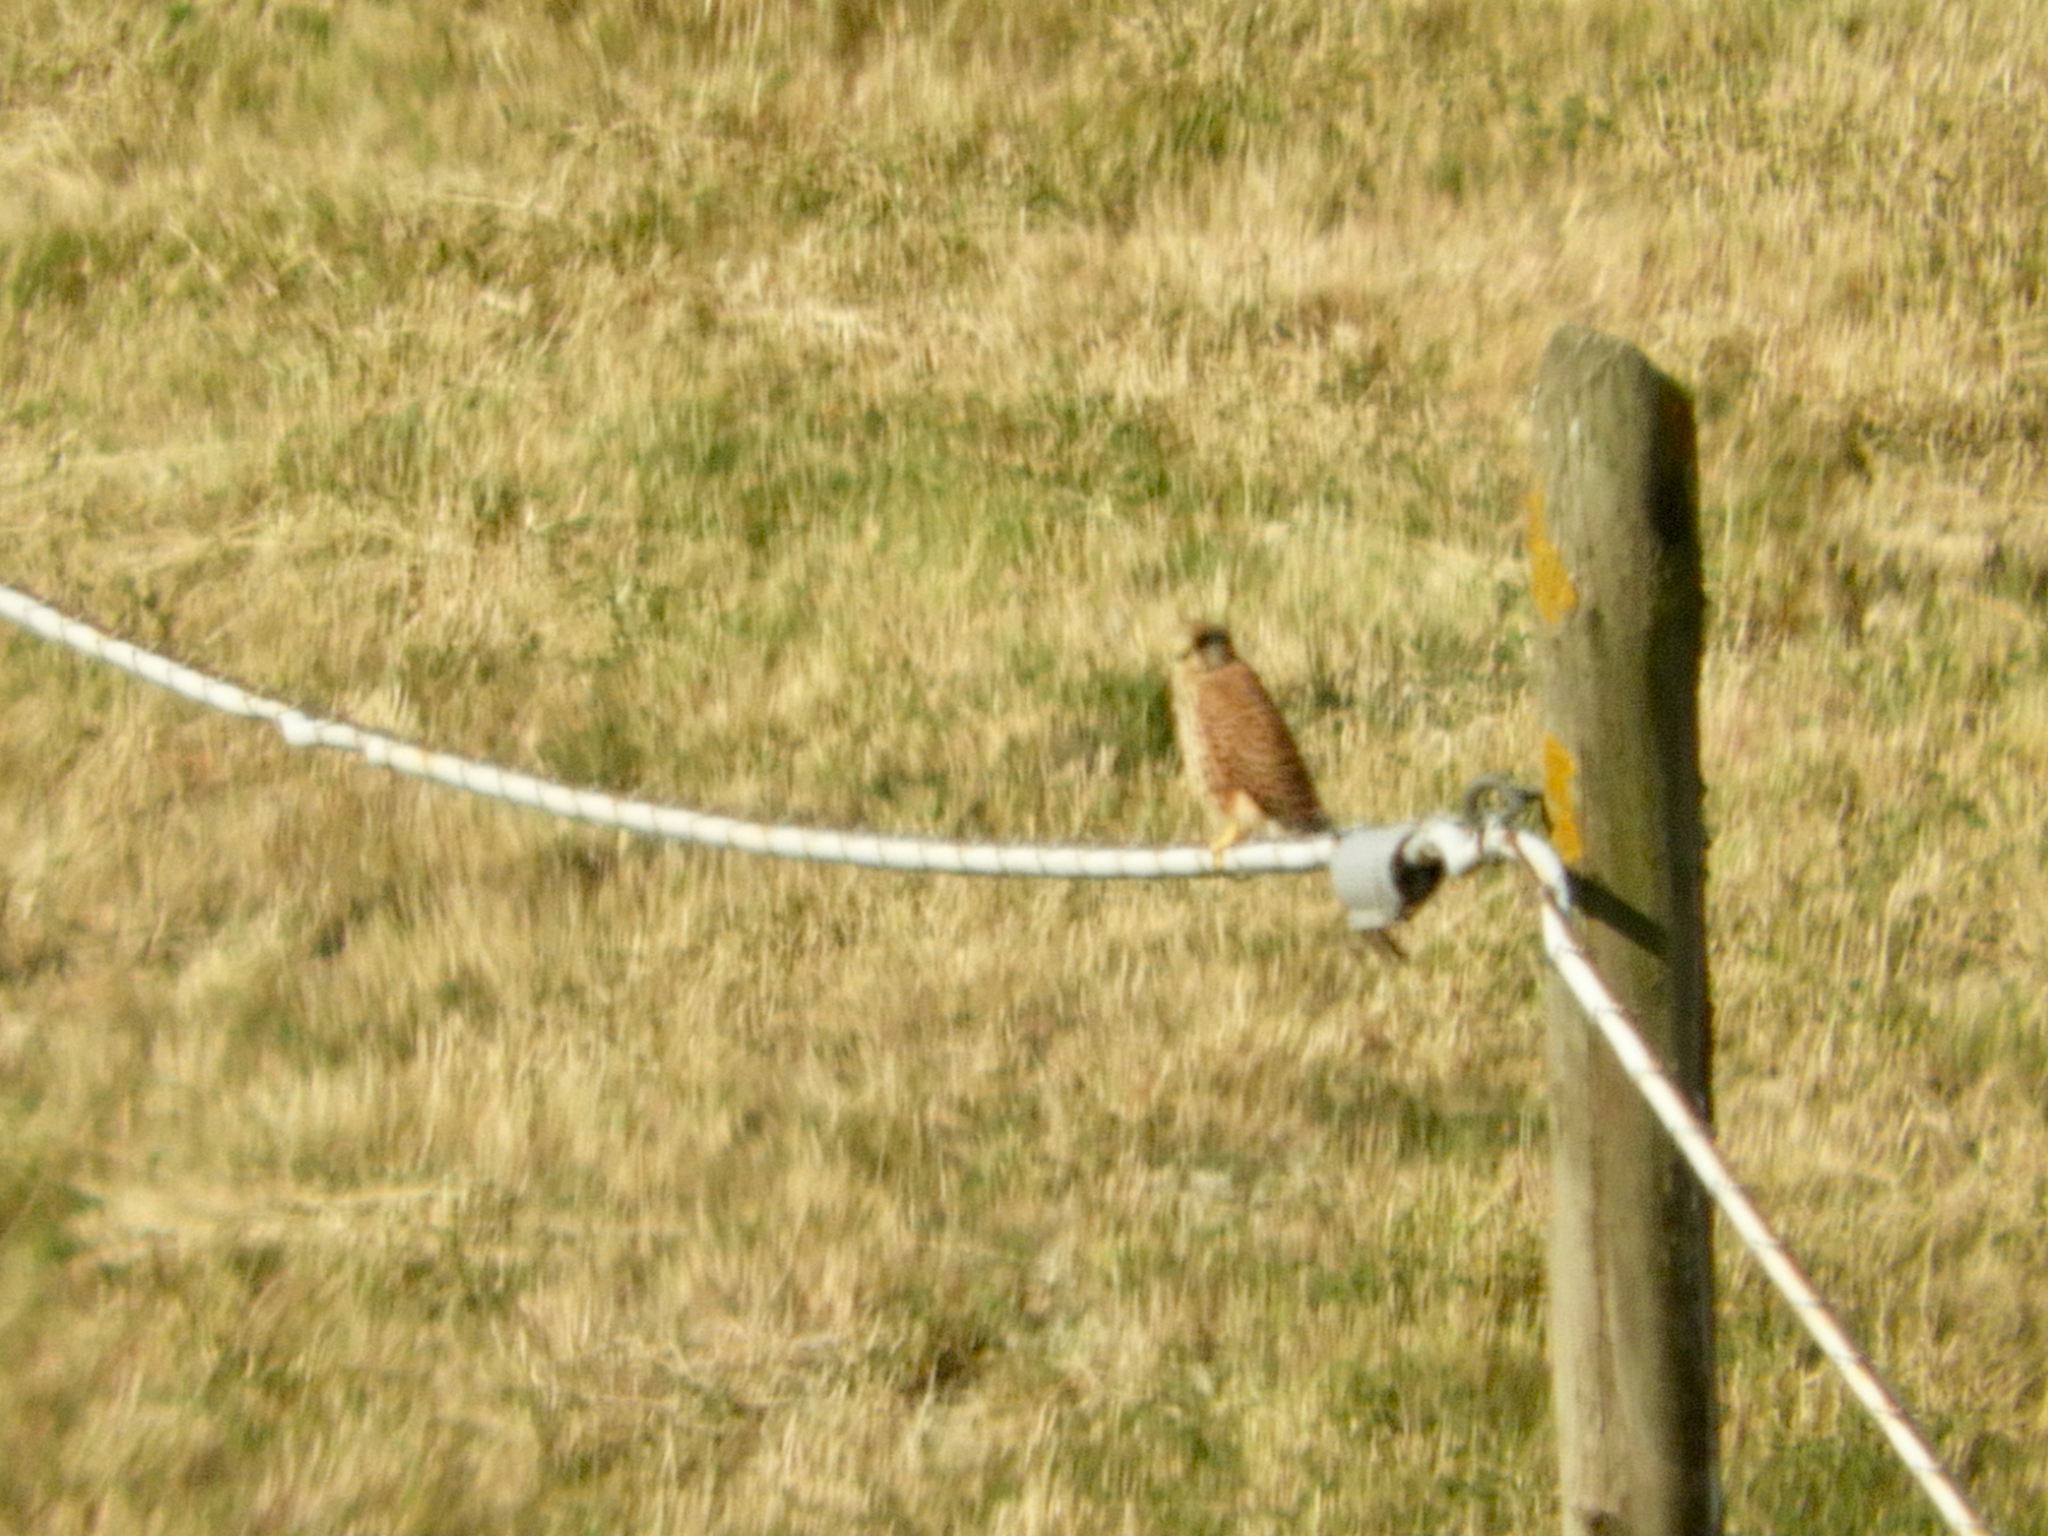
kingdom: Animalia
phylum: Chordata
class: Aves
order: Falconiformes
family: Falconidae
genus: Falco
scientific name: Falco tinnunculus
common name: Common kestrel
